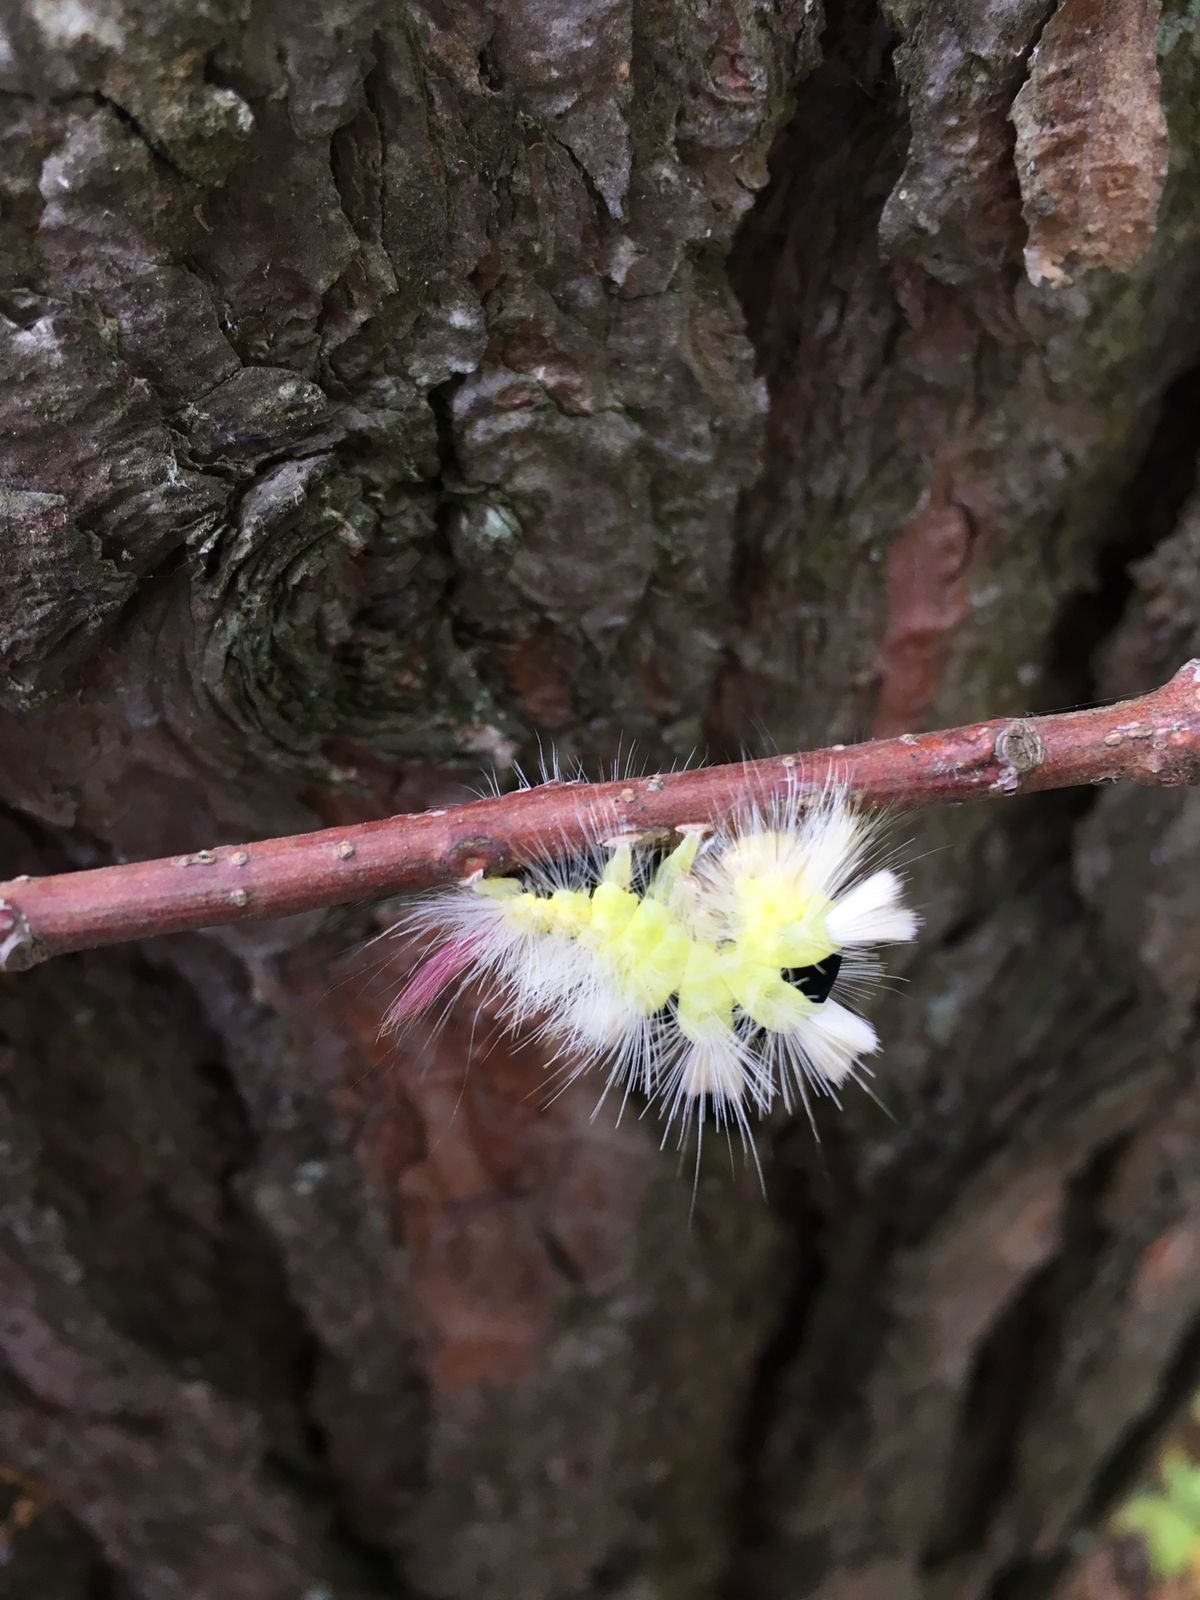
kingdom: Animalia
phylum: Arthropoda
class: Insecta
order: Lepidoptera
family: Erebidae
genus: Calliteara
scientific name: Calliteara pudibunda
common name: Pale tussock
